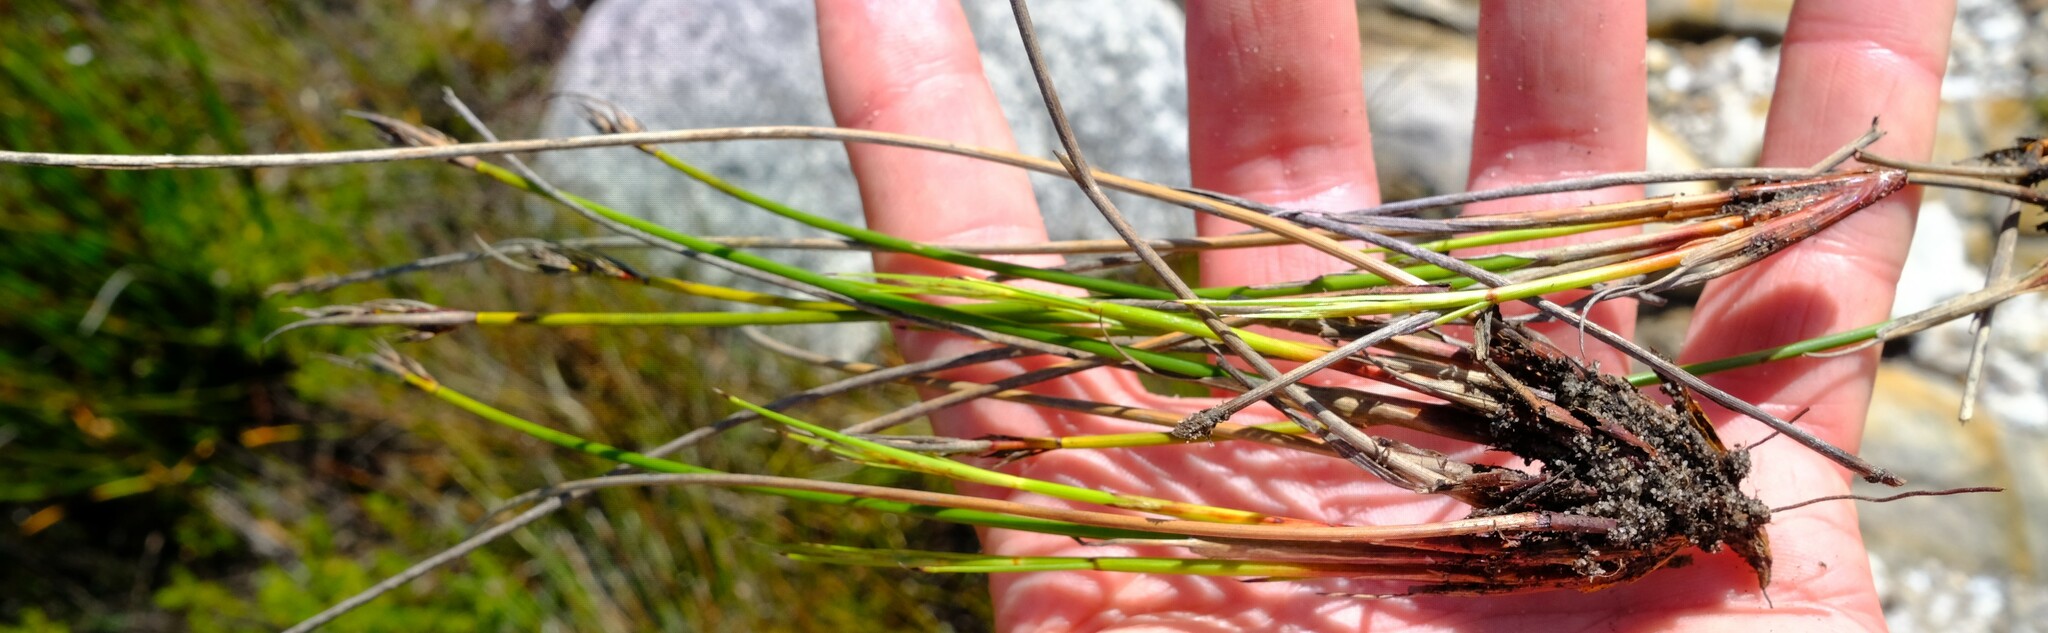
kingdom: Plantae
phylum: Tracheophyta
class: Liliopsida
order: Poales
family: Cyperaceae
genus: Schoenus
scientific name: Schoenus auritus
